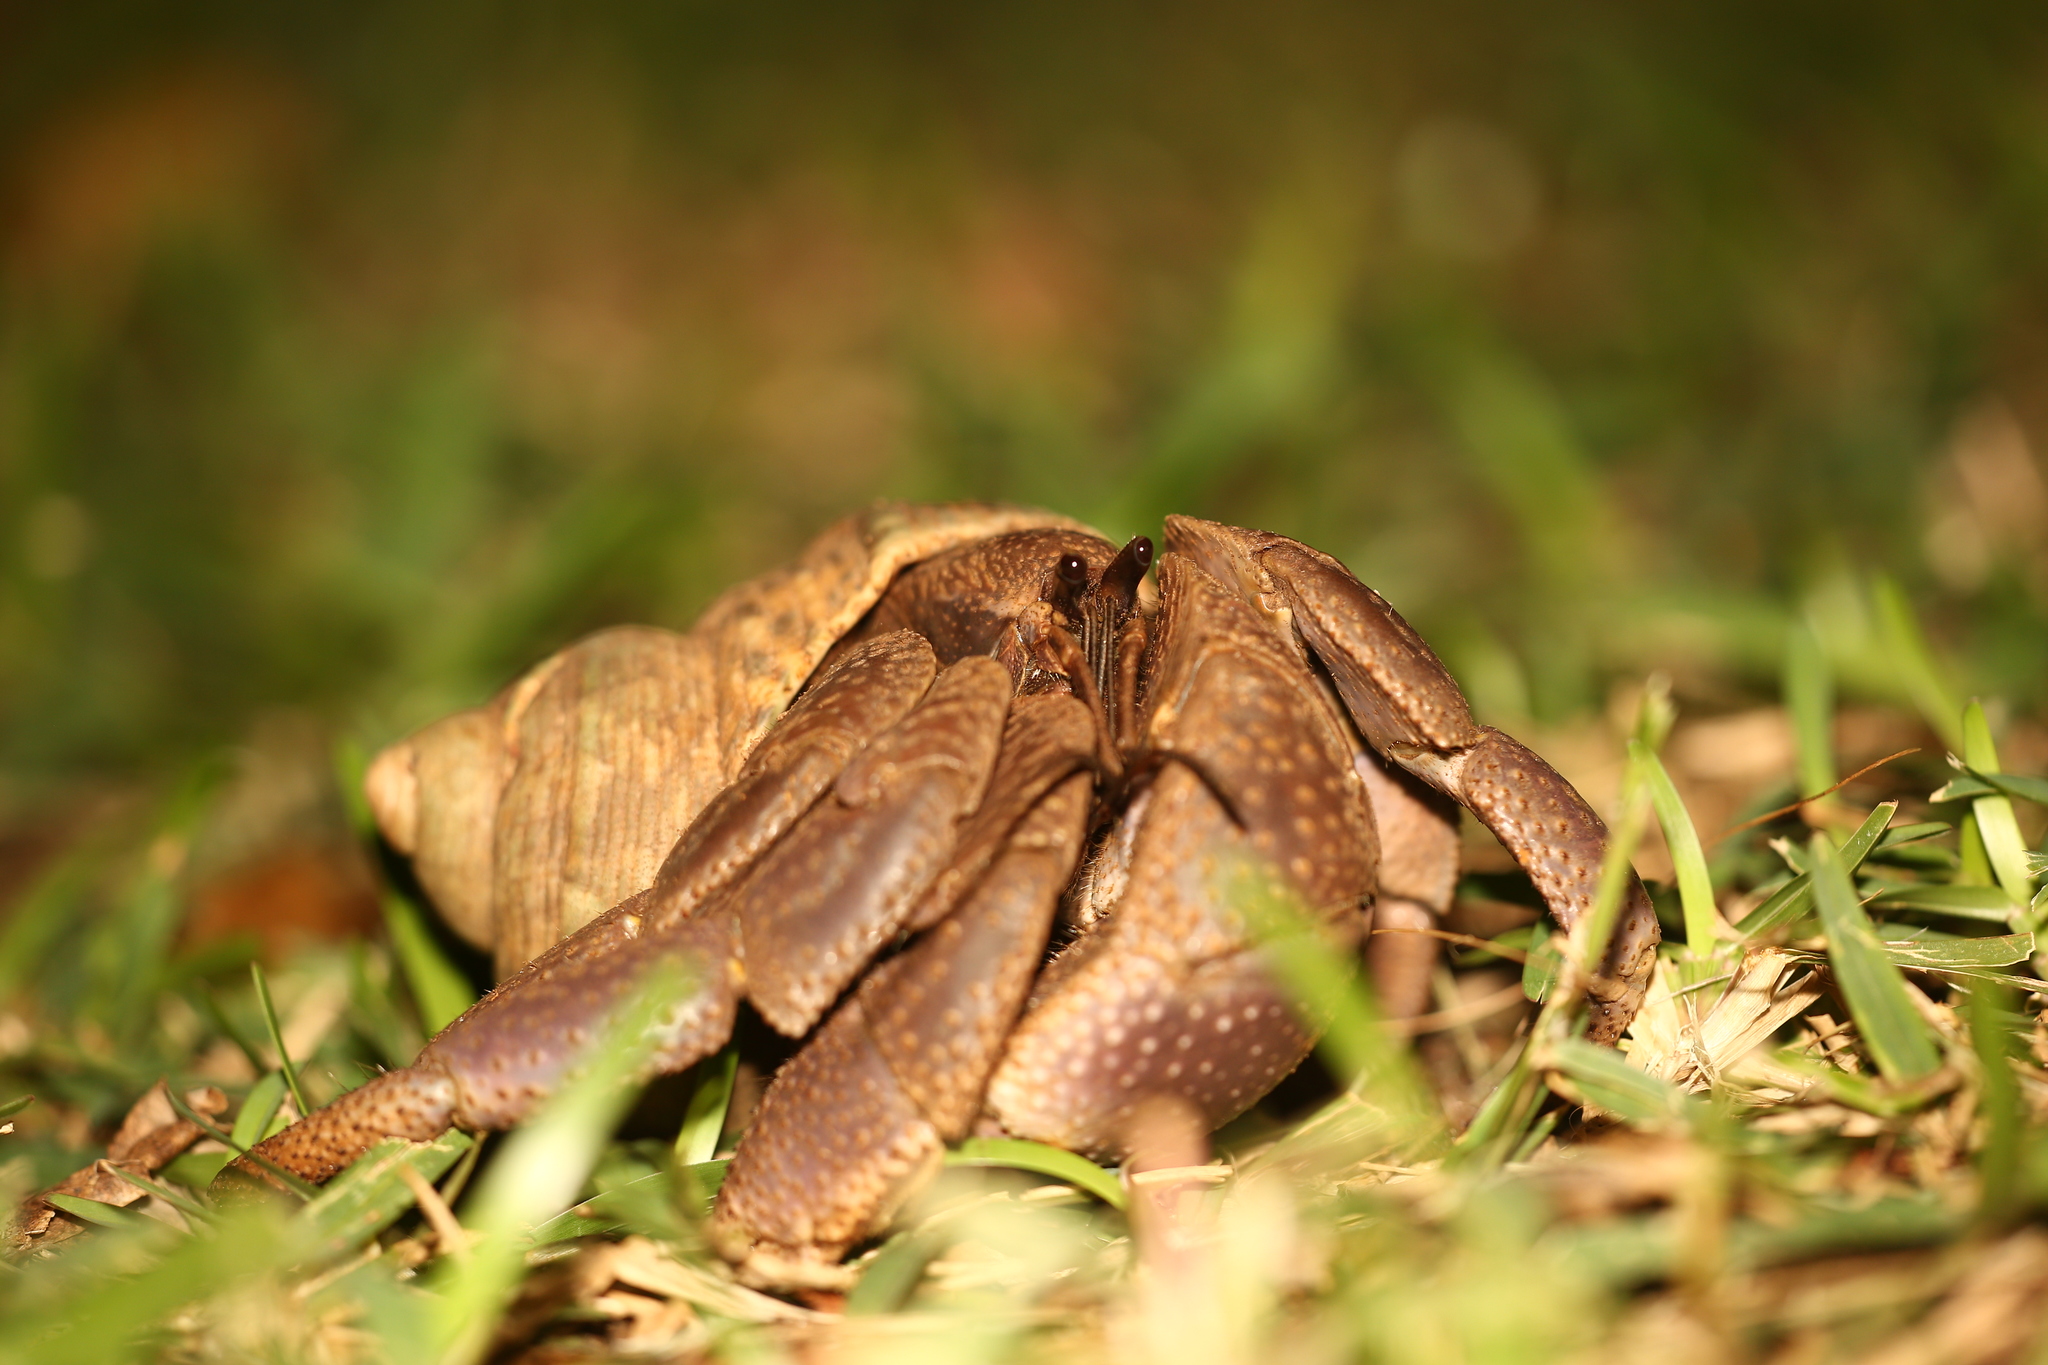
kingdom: Animalia
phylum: Arthropoda
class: Malacostraca
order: Decapoda
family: Coenobitidae
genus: Coenobita
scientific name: Coenobita brevimanus
